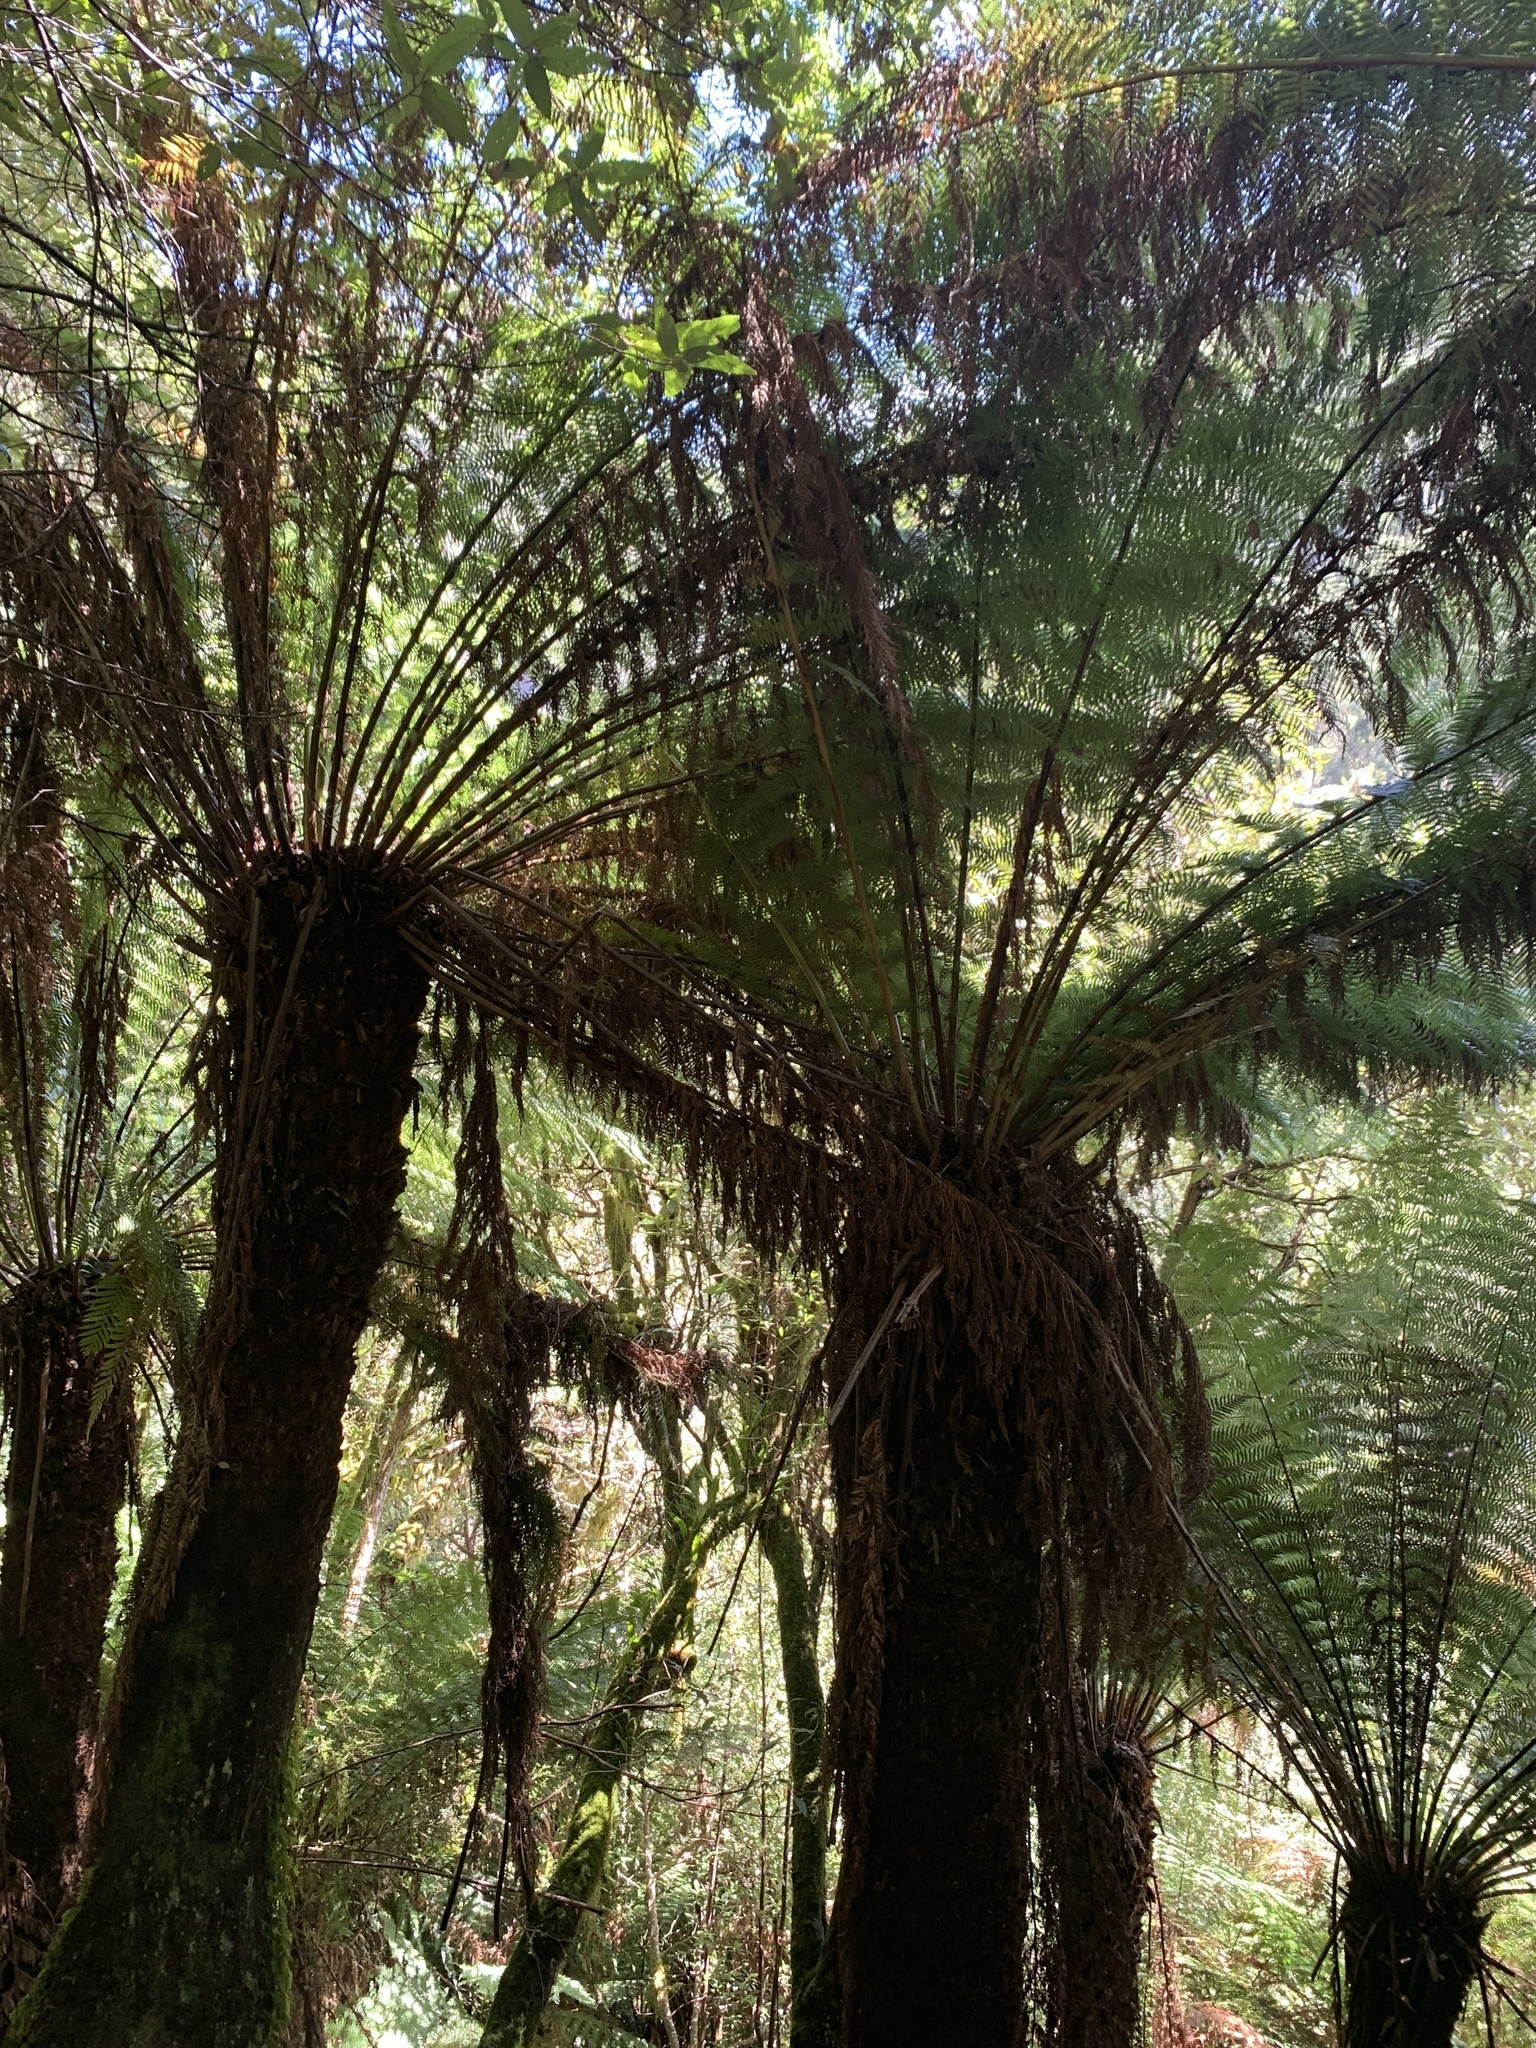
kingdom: Plantae
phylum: Tracheophyta
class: Polypodiopsida
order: Cyatheales
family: Dicksoniaceae
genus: Dicksonia
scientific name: Dicksonia antarctica
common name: Australian treefern
